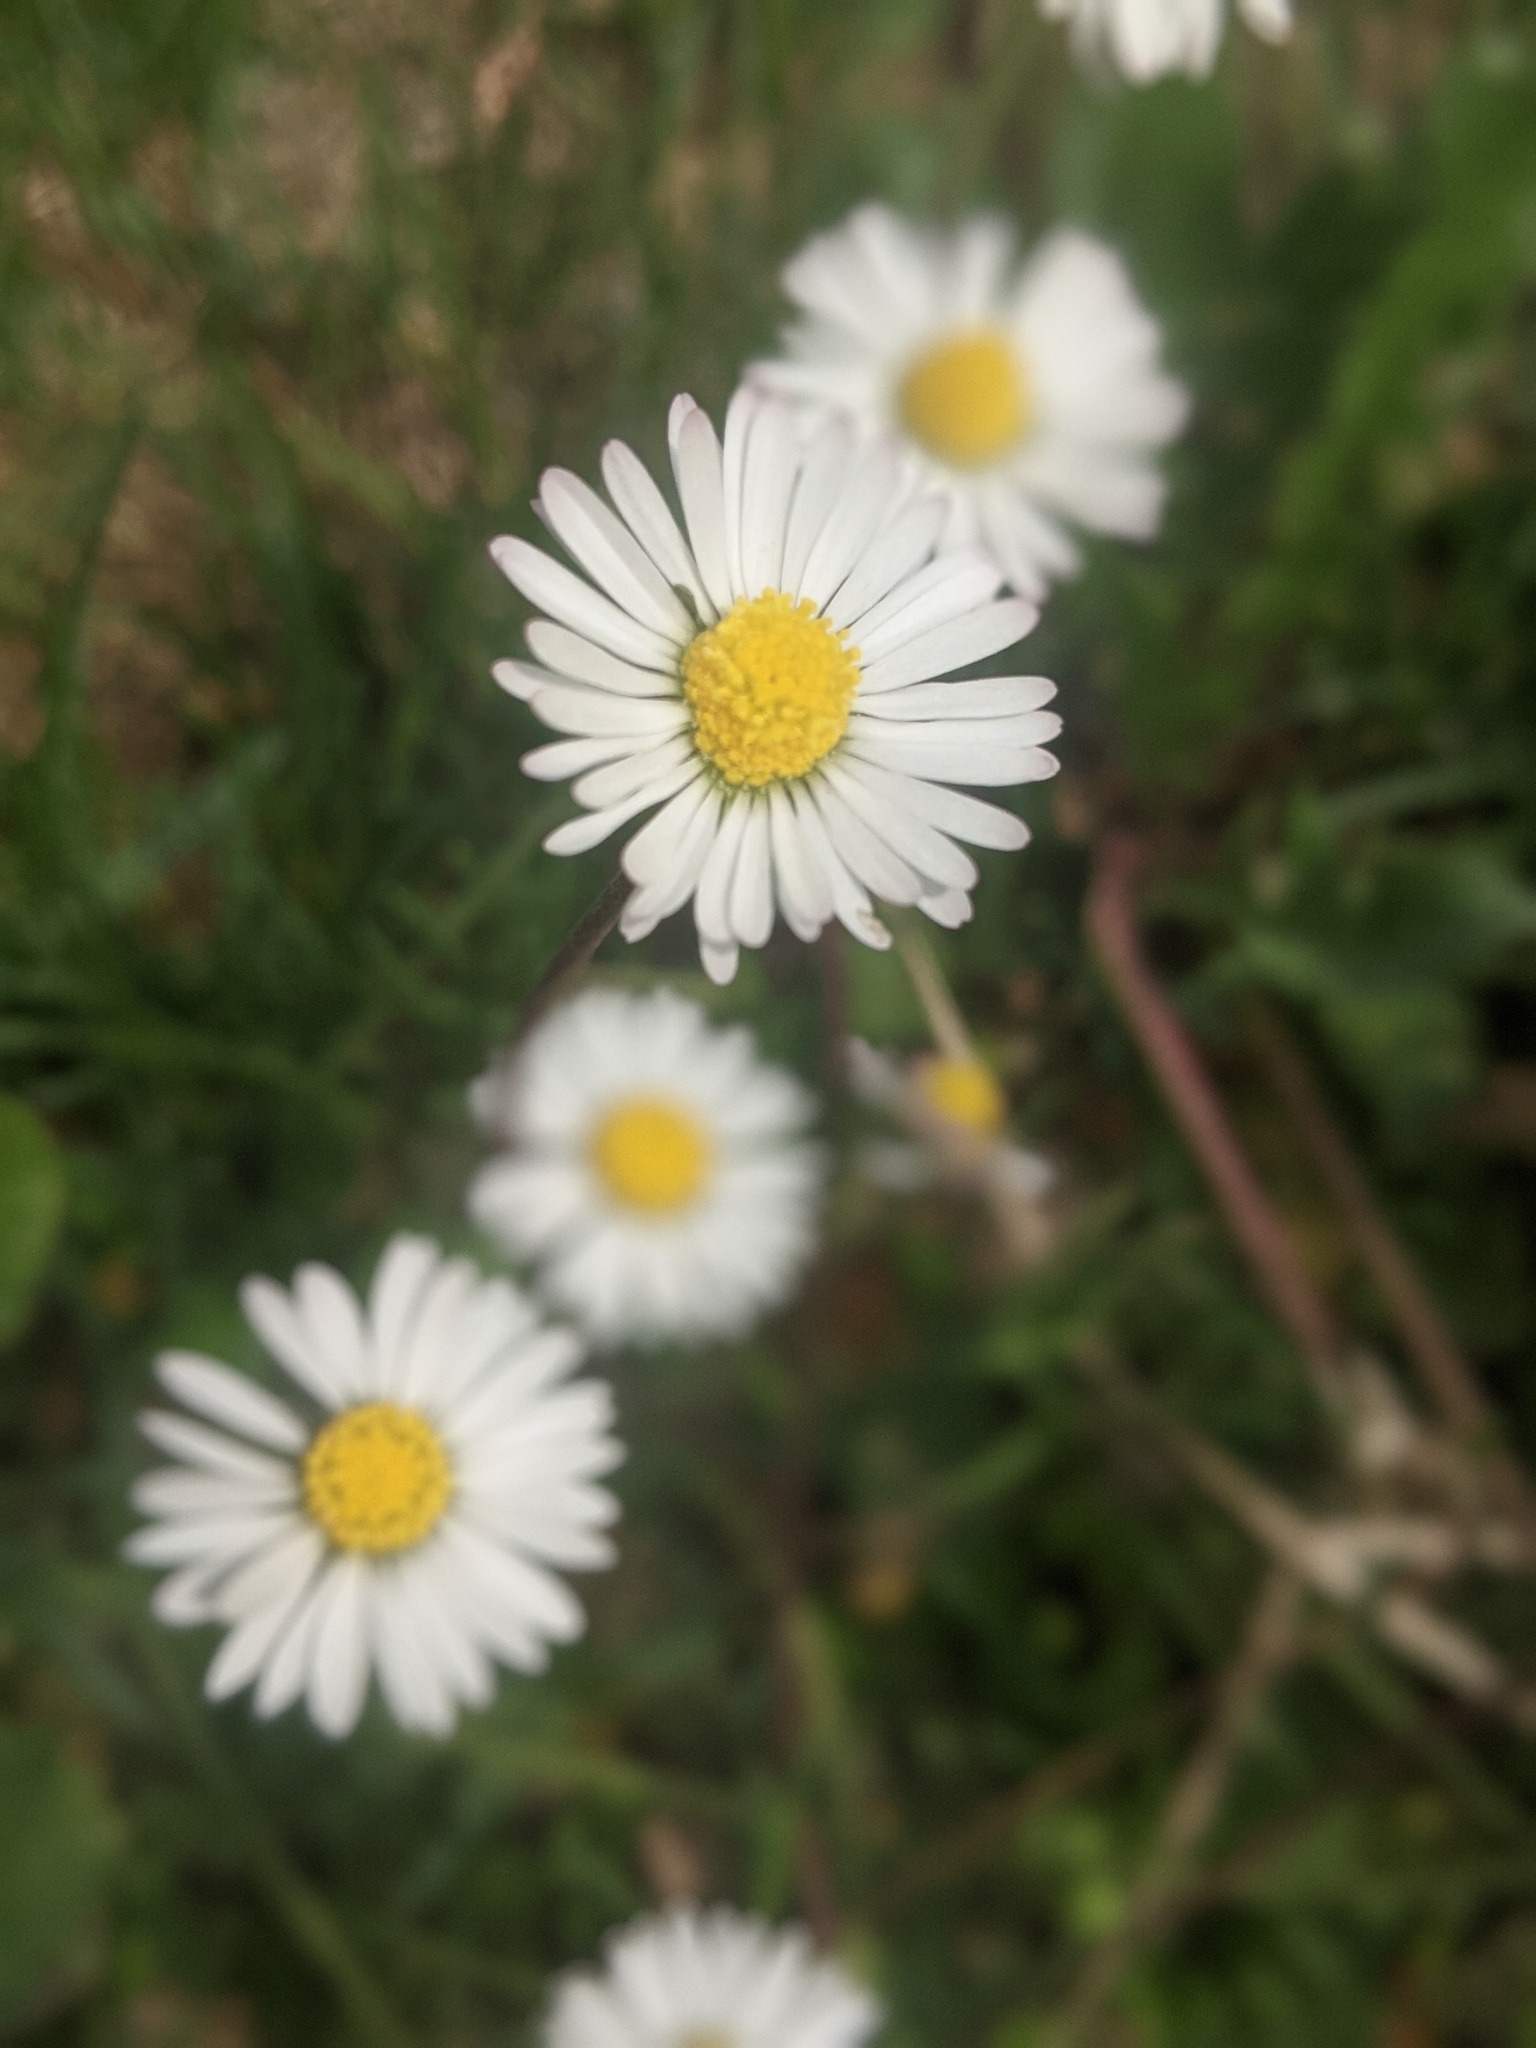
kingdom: Plantae
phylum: Tracheophyta
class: Magnoliopsida
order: Asterales
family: Asteraceae
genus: Bellis
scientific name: Bellis perennis
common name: Lawndaisy
